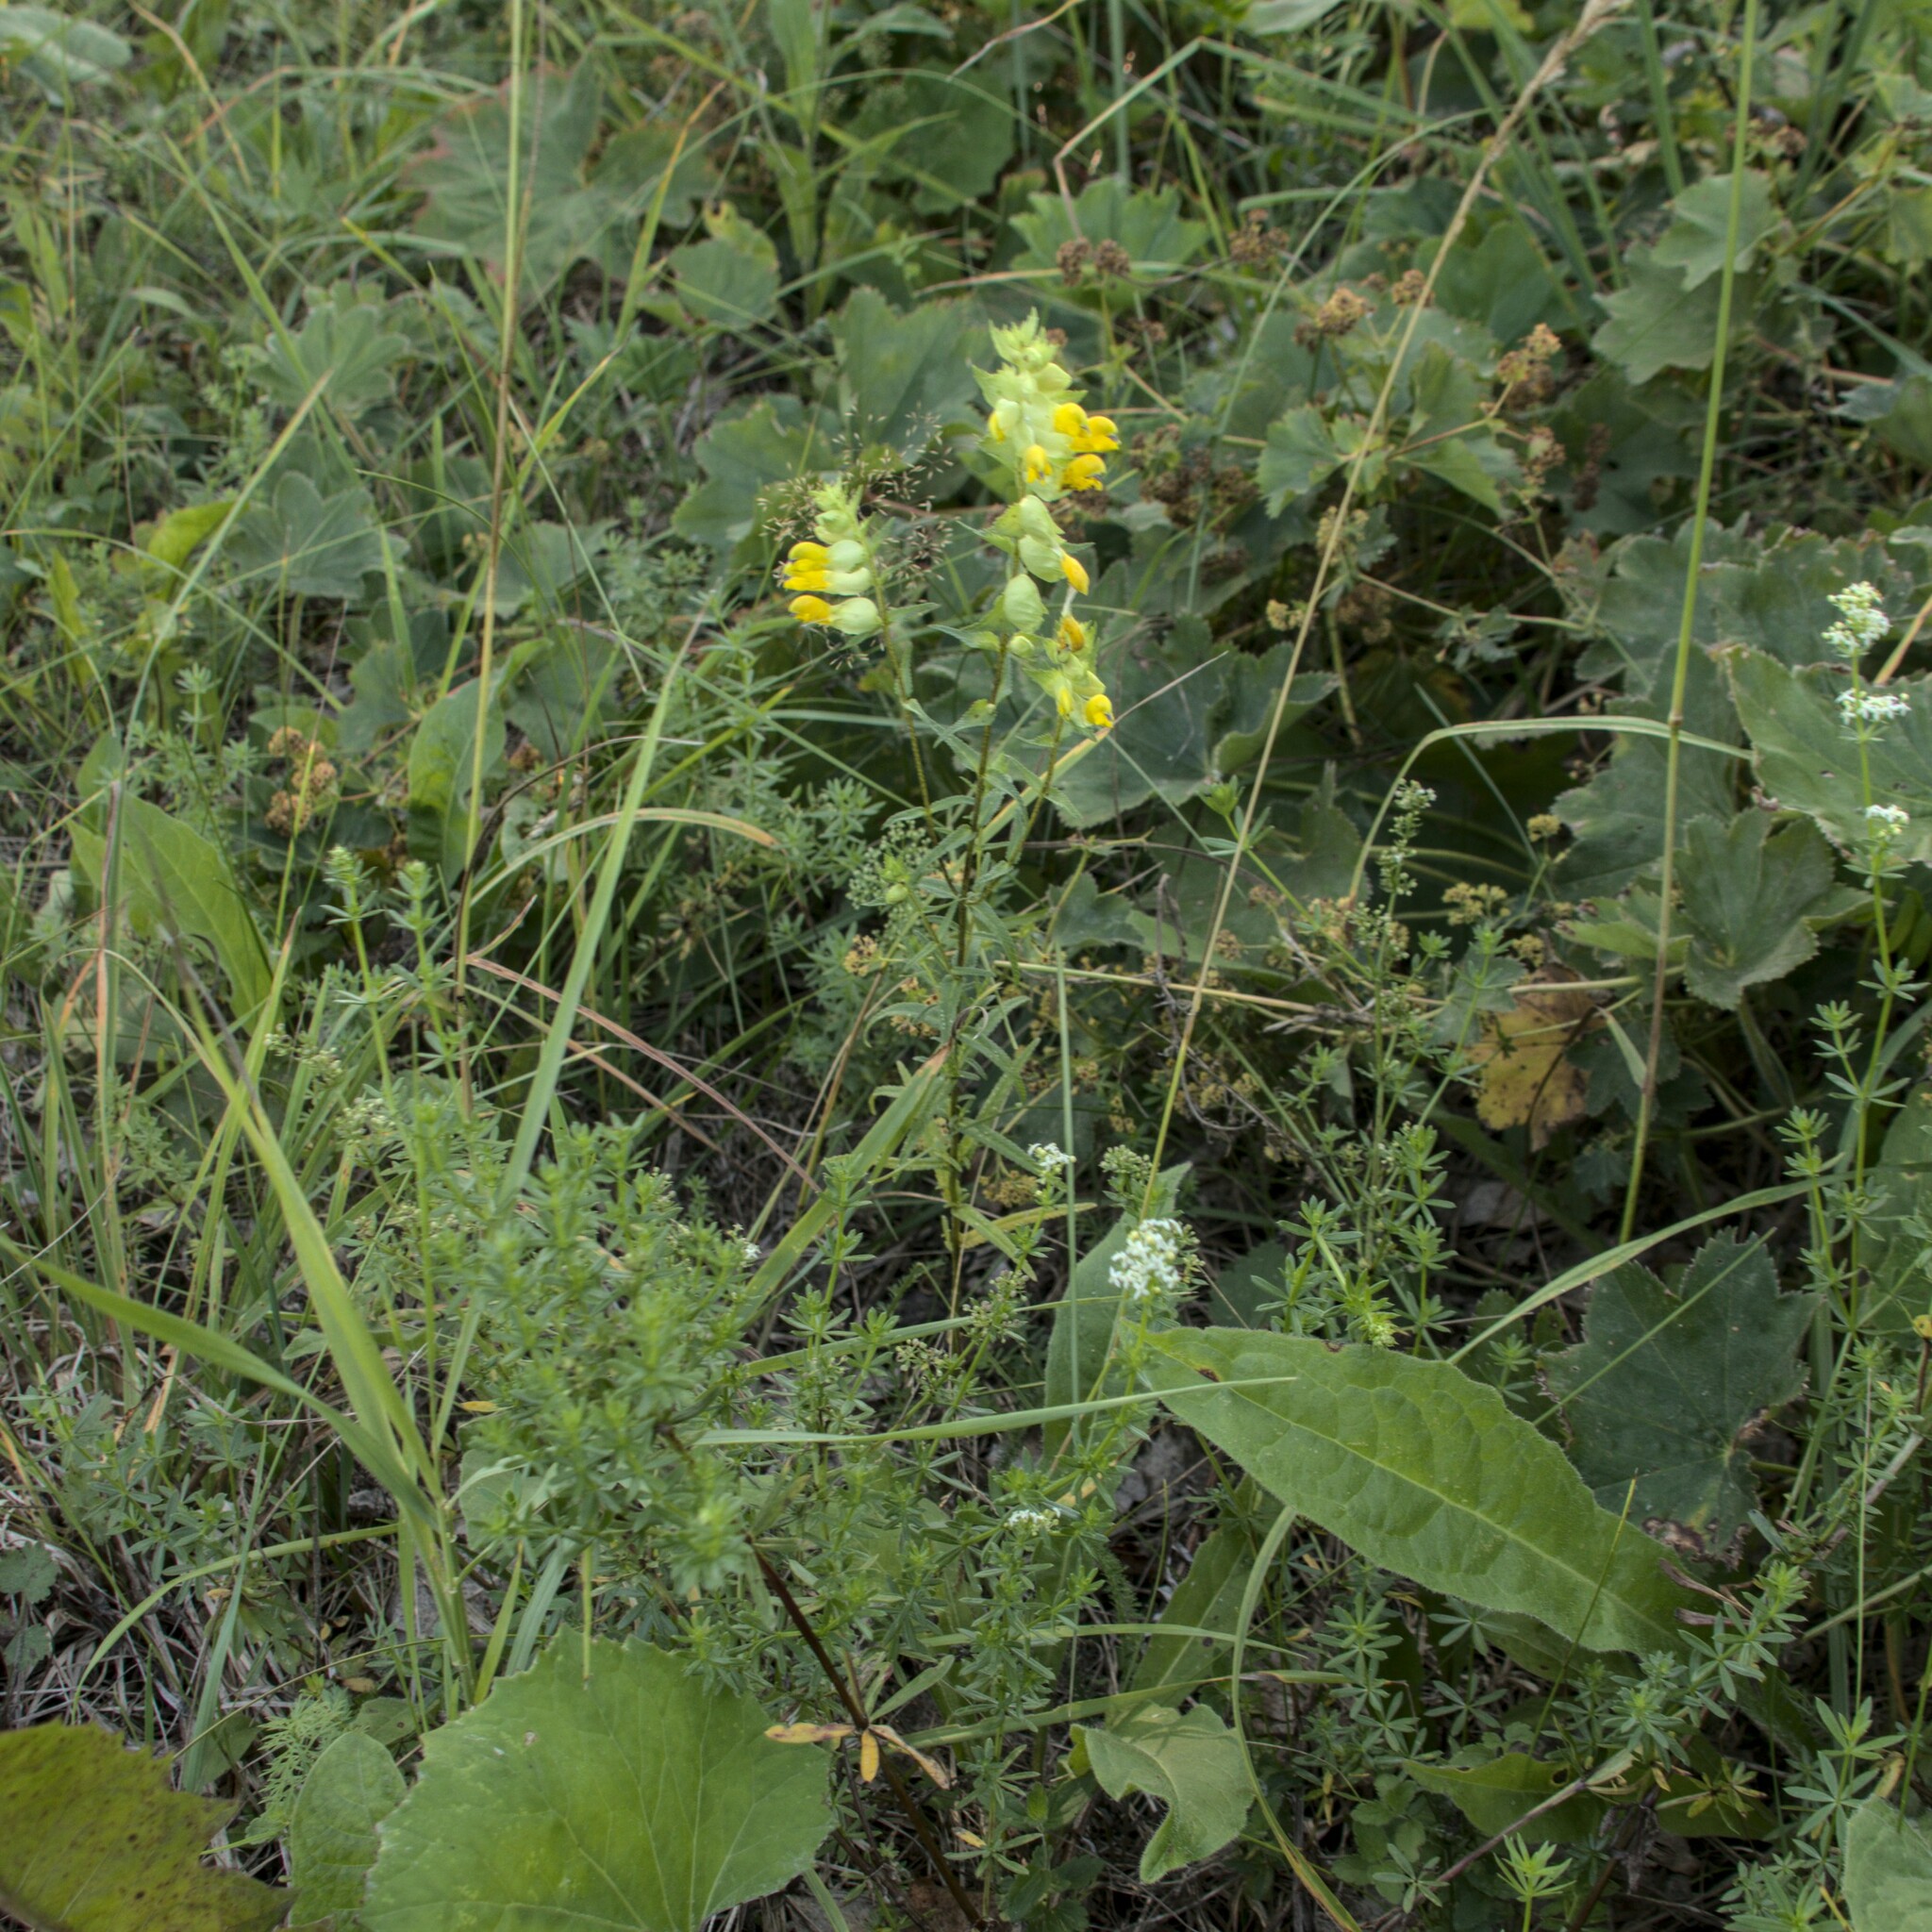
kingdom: Plantae
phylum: Tracheophyta
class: Magnoliopsida
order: Lamiales
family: Orobanchaceae
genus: Rhinanthus
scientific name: Rhinanthus serotinus
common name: Late-flowering yellow rattle
